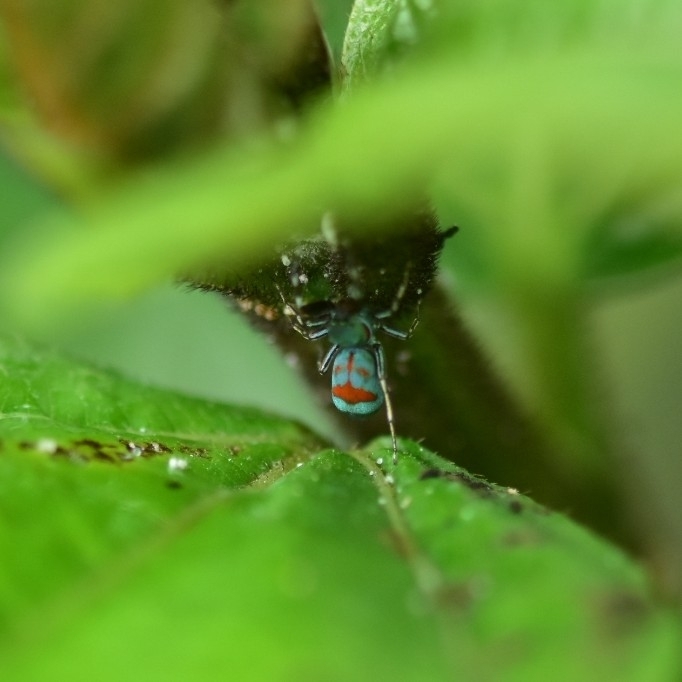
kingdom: Animalia
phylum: Arthropoda
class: Arachnida
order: Araneae
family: Salticidae
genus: Siler
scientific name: Siler semiglaucus
